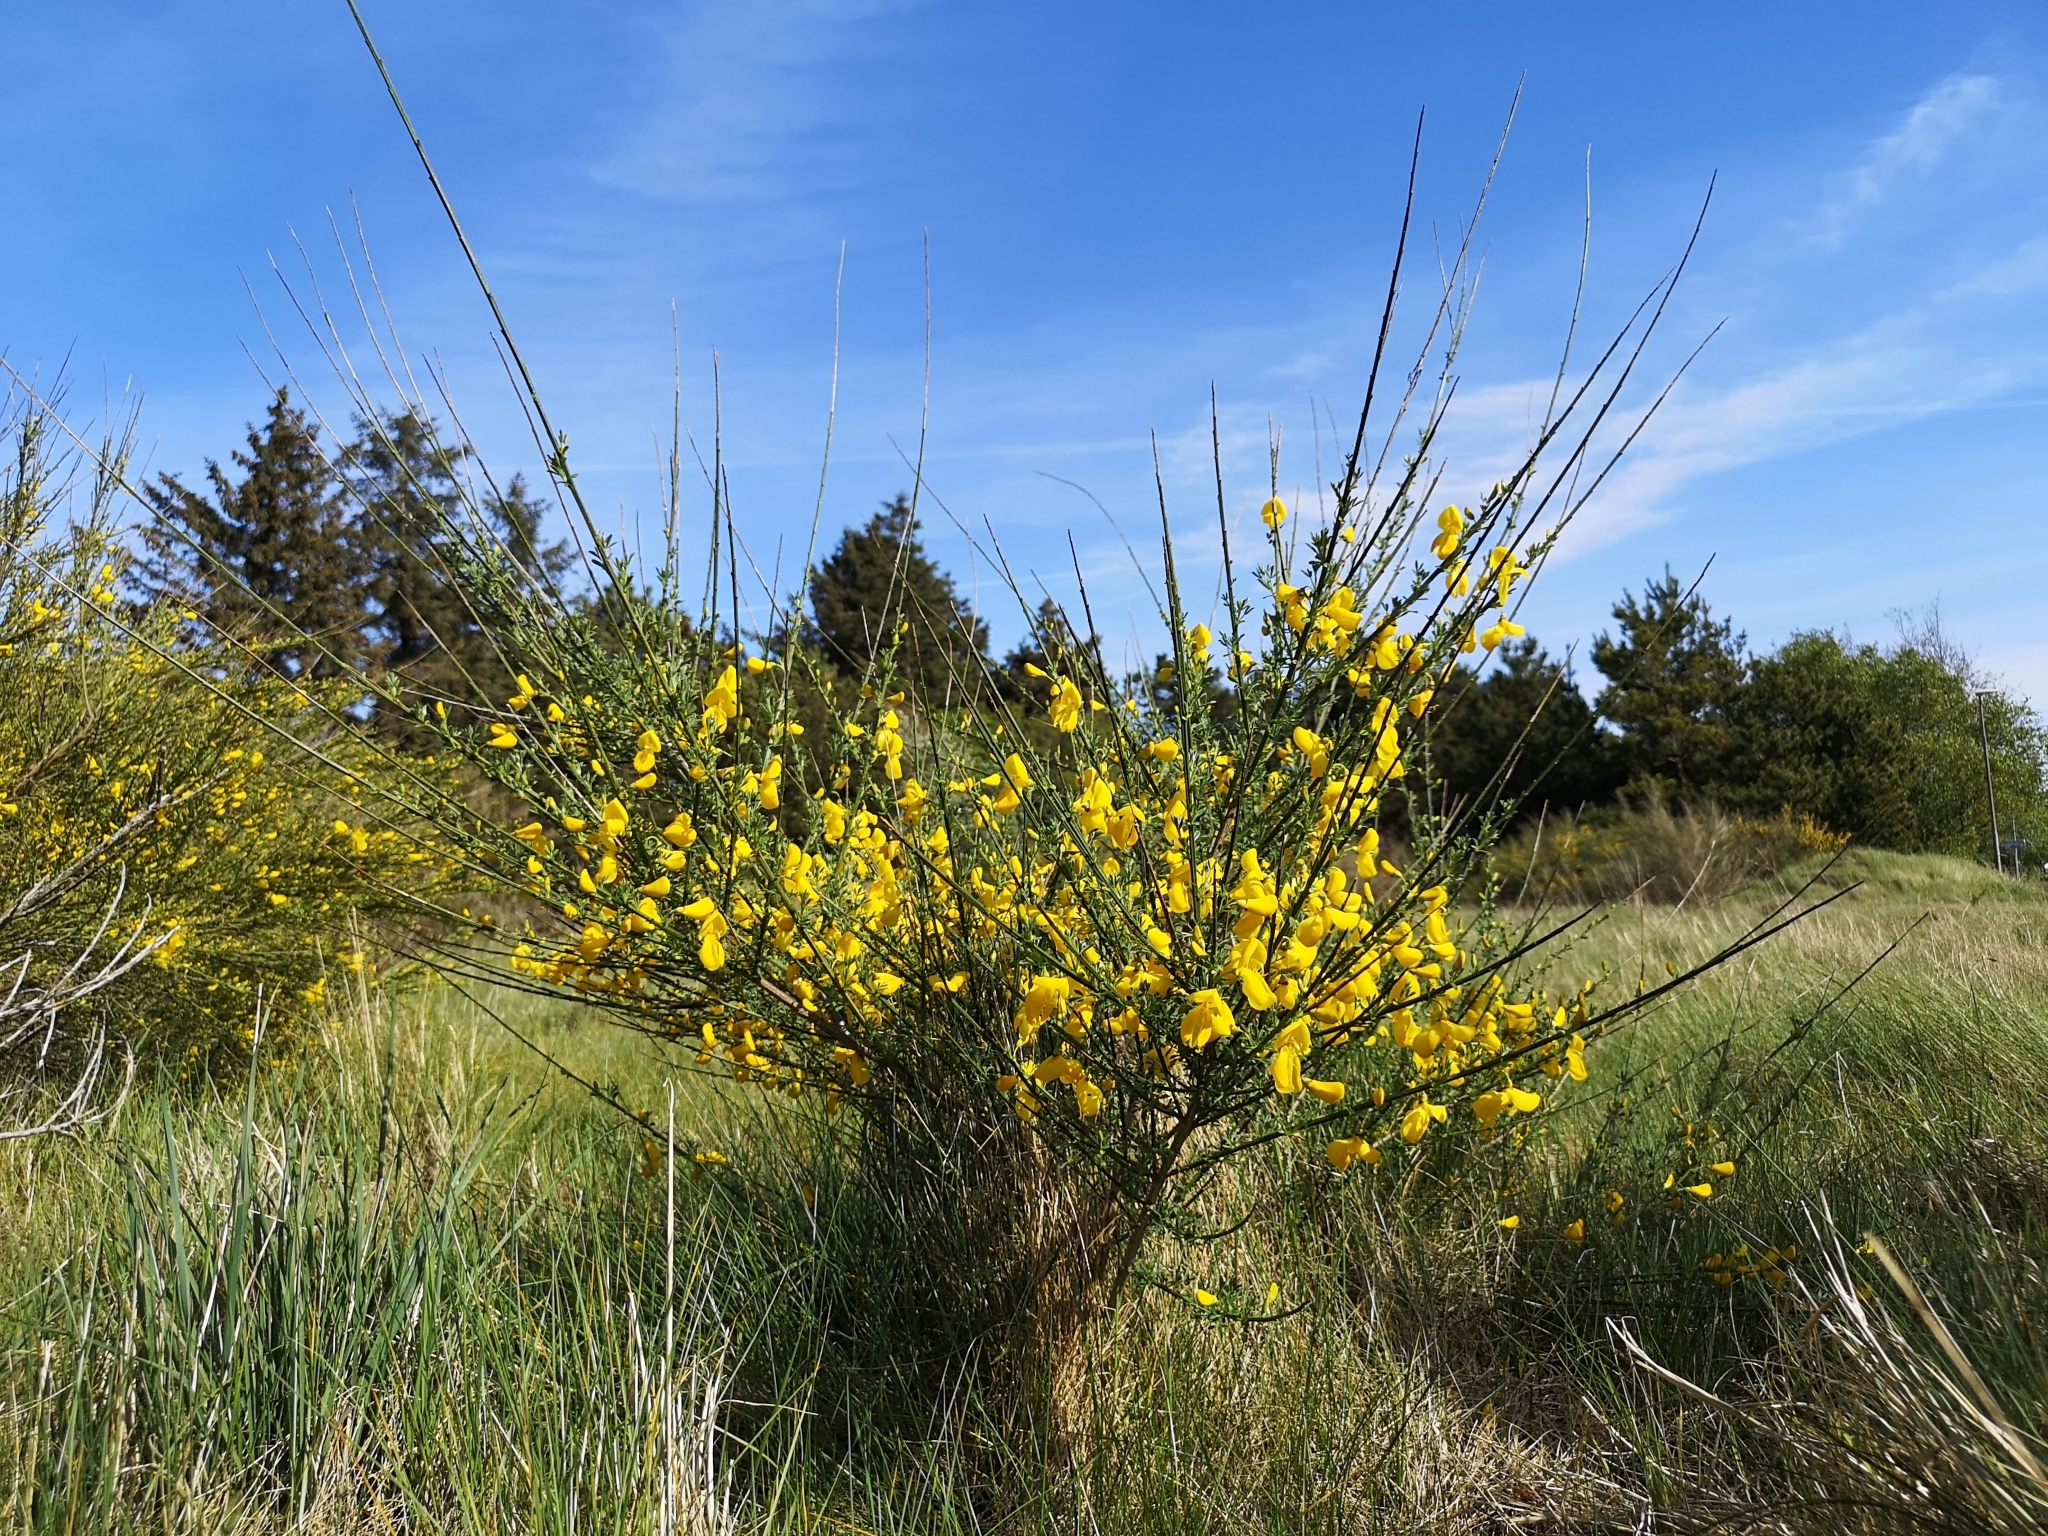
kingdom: Plantae
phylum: Tracheophyta
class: Magnoliopsida
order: Fabales
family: Fabaceae
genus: Cytisus
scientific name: Cytisus scoparius
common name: Scotch broom
